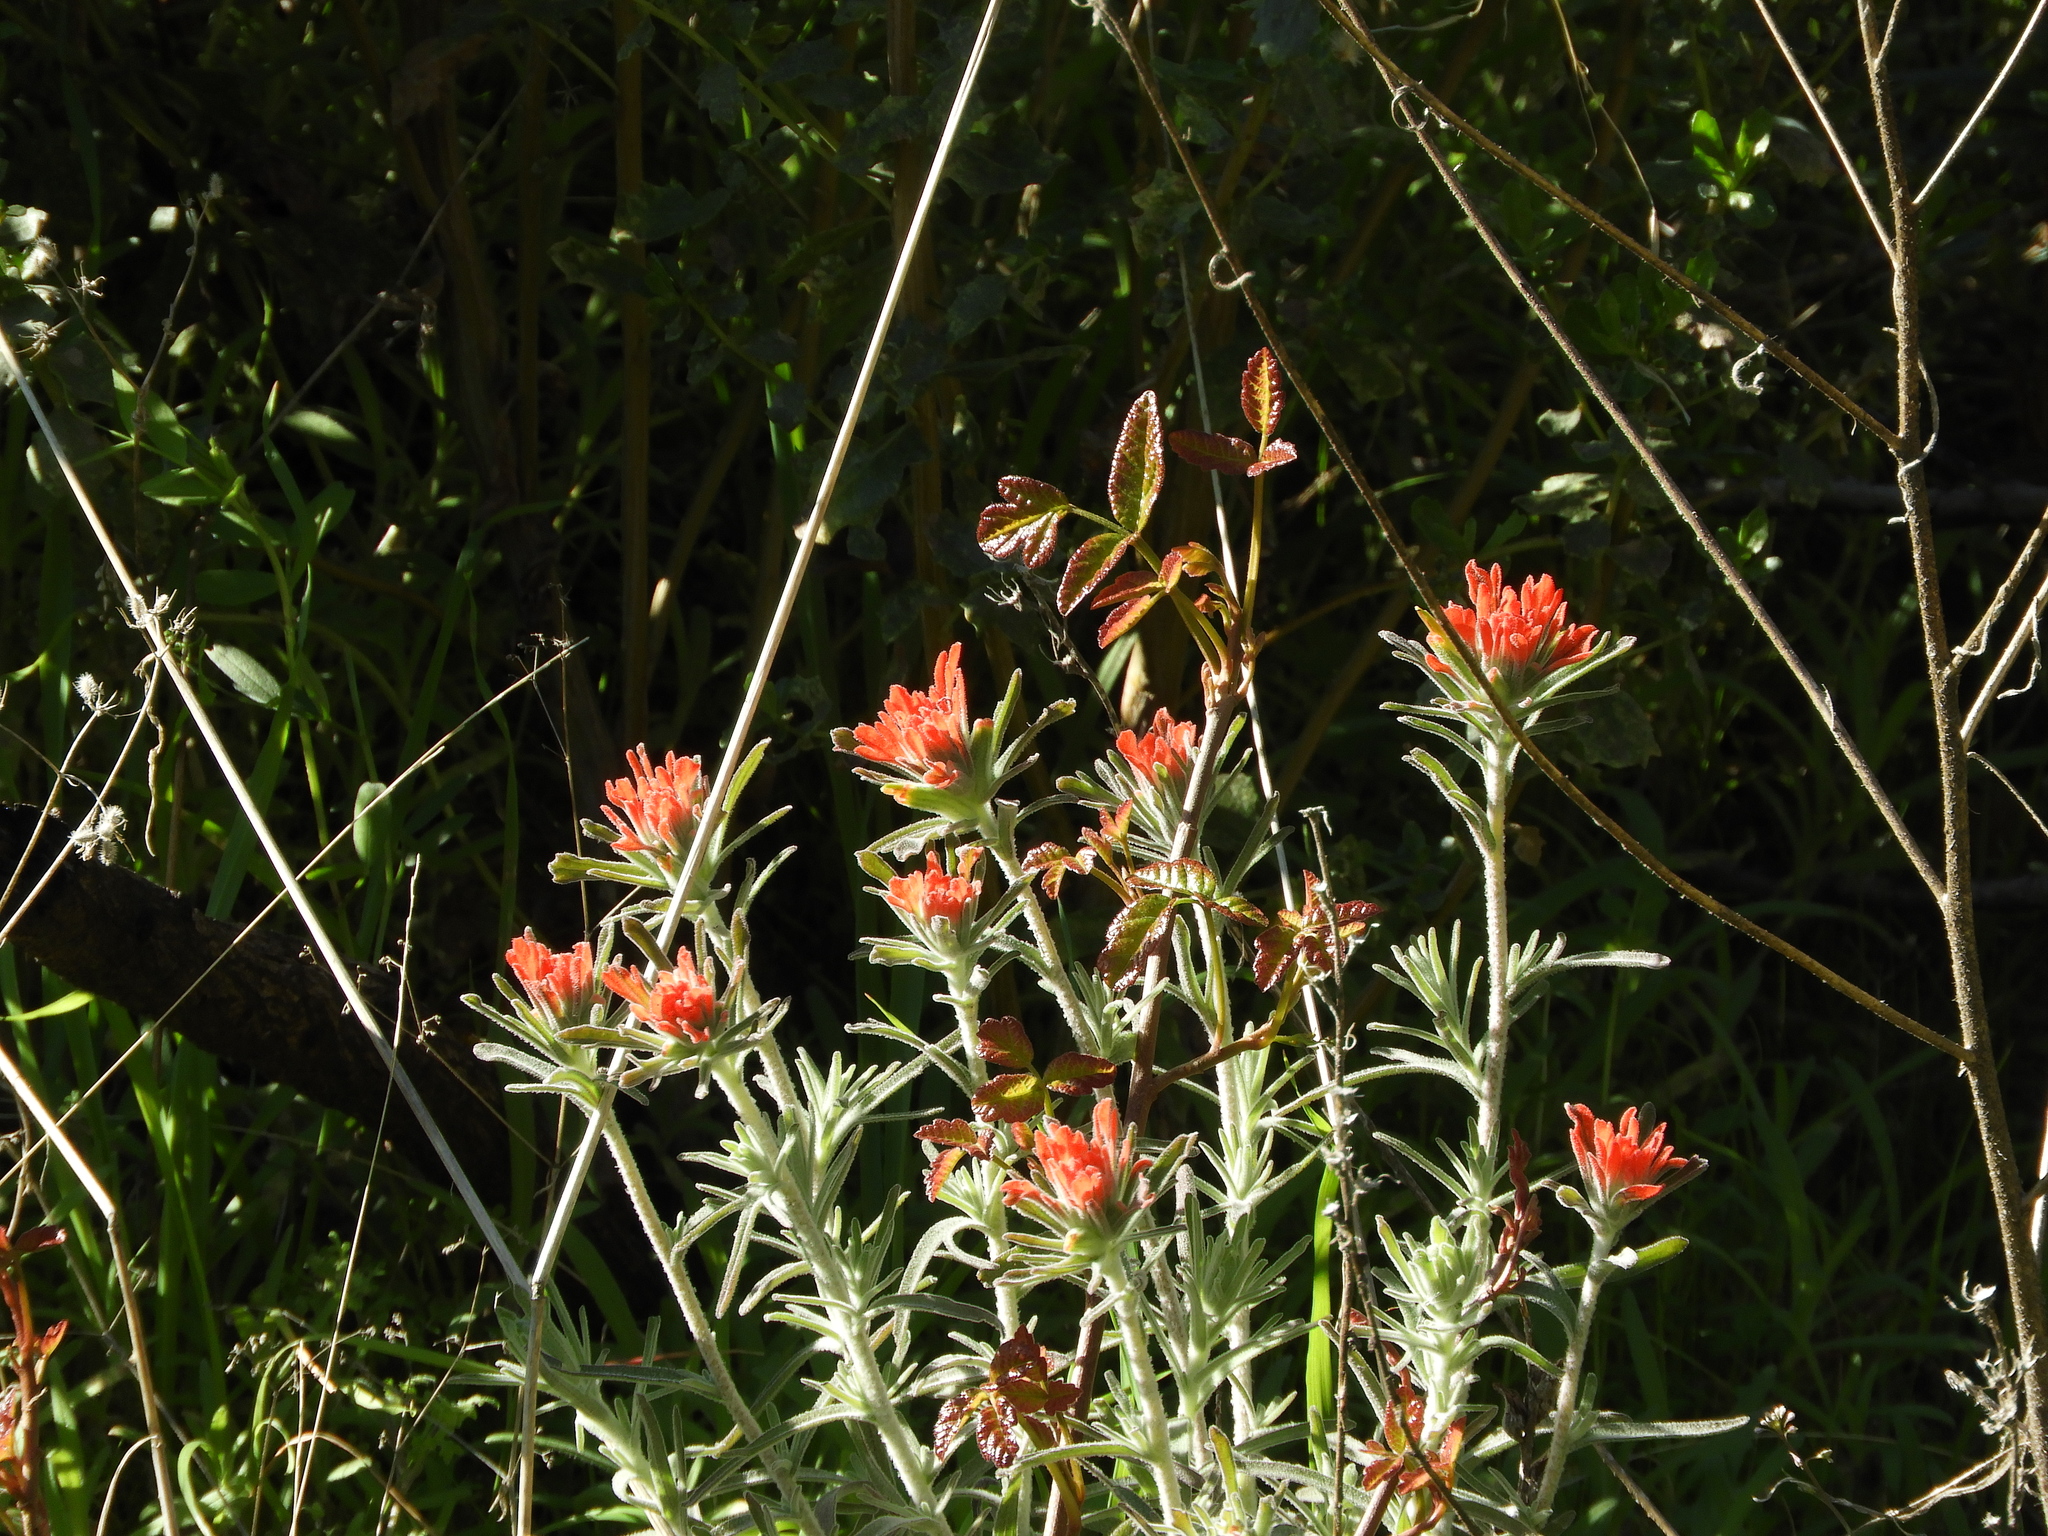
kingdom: Plantae
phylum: Tracheophyta
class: Magnoliopsida
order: Lamiales
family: Orobanchaceae
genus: Castilleja
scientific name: Castilleja foliolosa
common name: Woolly indian paintbrush
